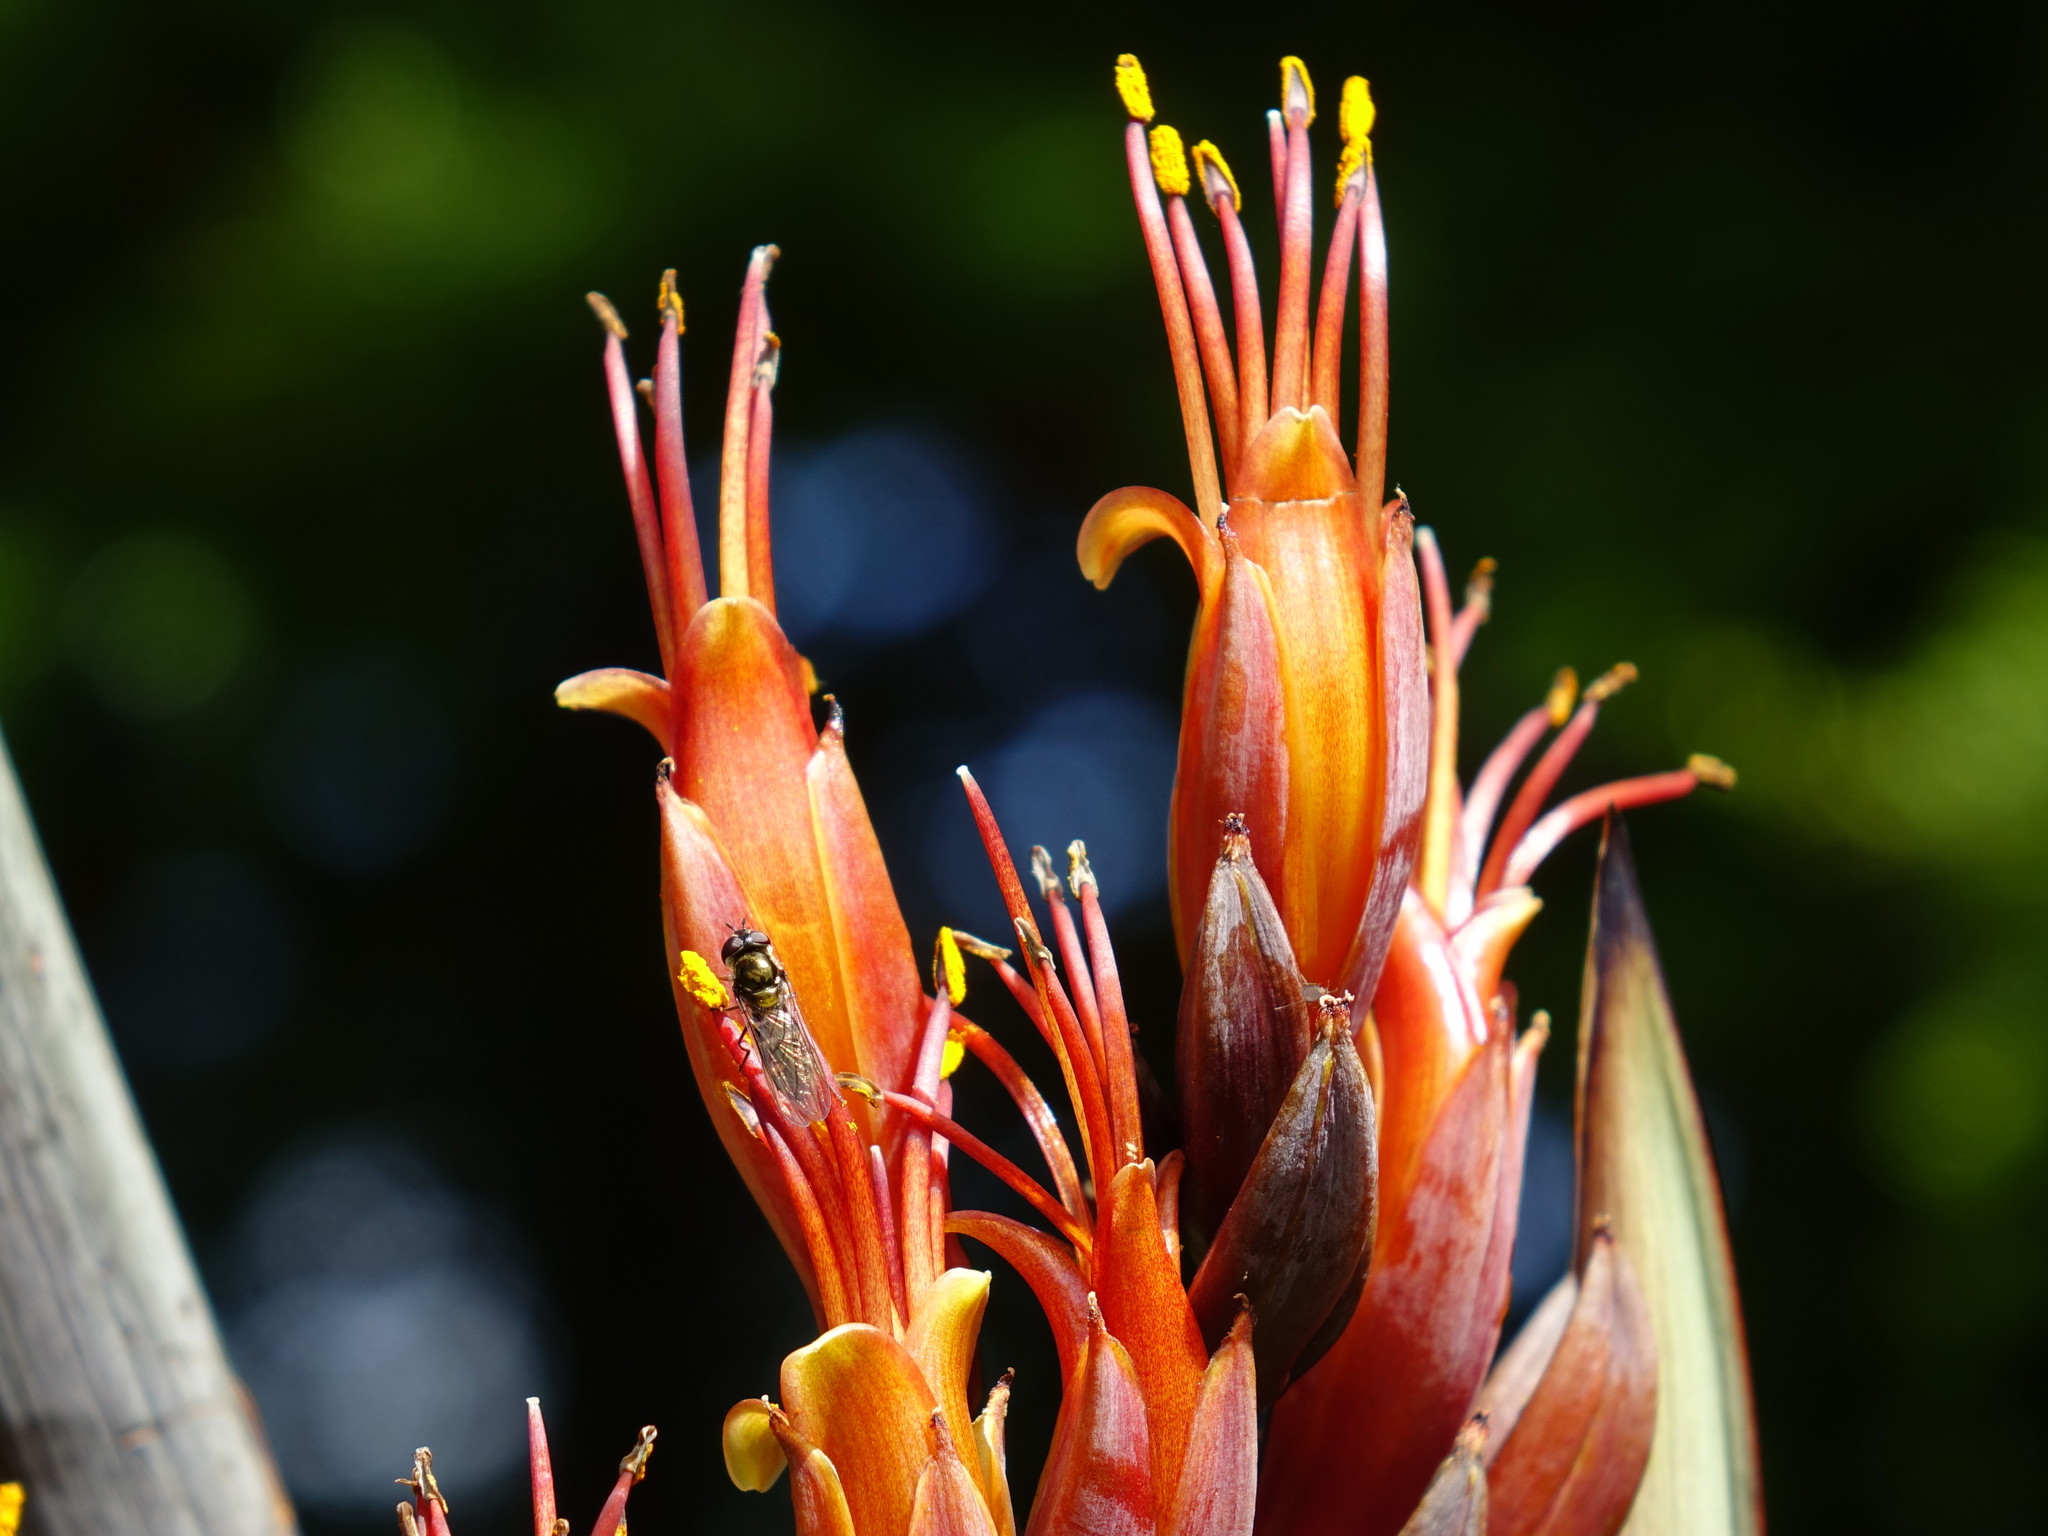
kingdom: Animalia
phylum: Arthropoda
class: Insecta
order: Diptera
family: Syrphidae
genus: Melangyna
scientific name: Melangyna novaezelandiae
